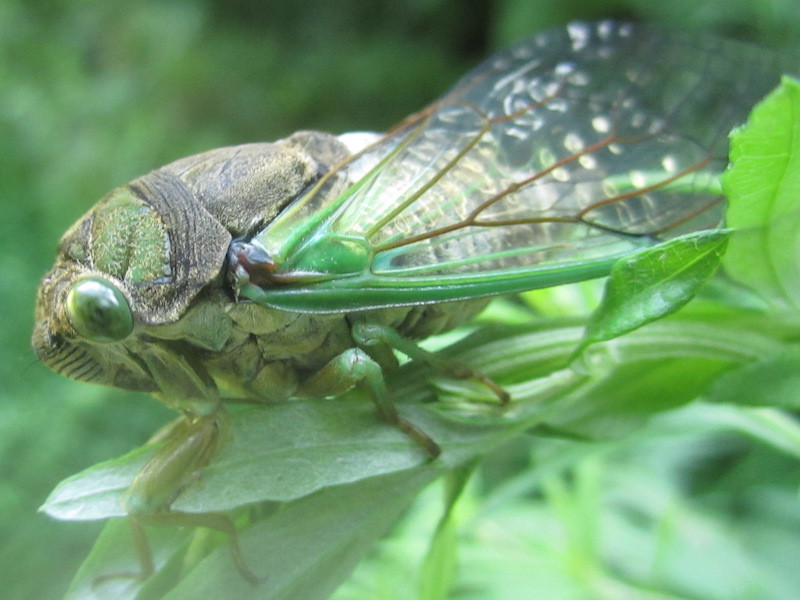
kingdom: Animalia
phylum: Arthropoda
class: Insecta
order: Hemiptera
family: Cicadidae
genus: Neotibicen
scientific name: Neotibicen tibicen
